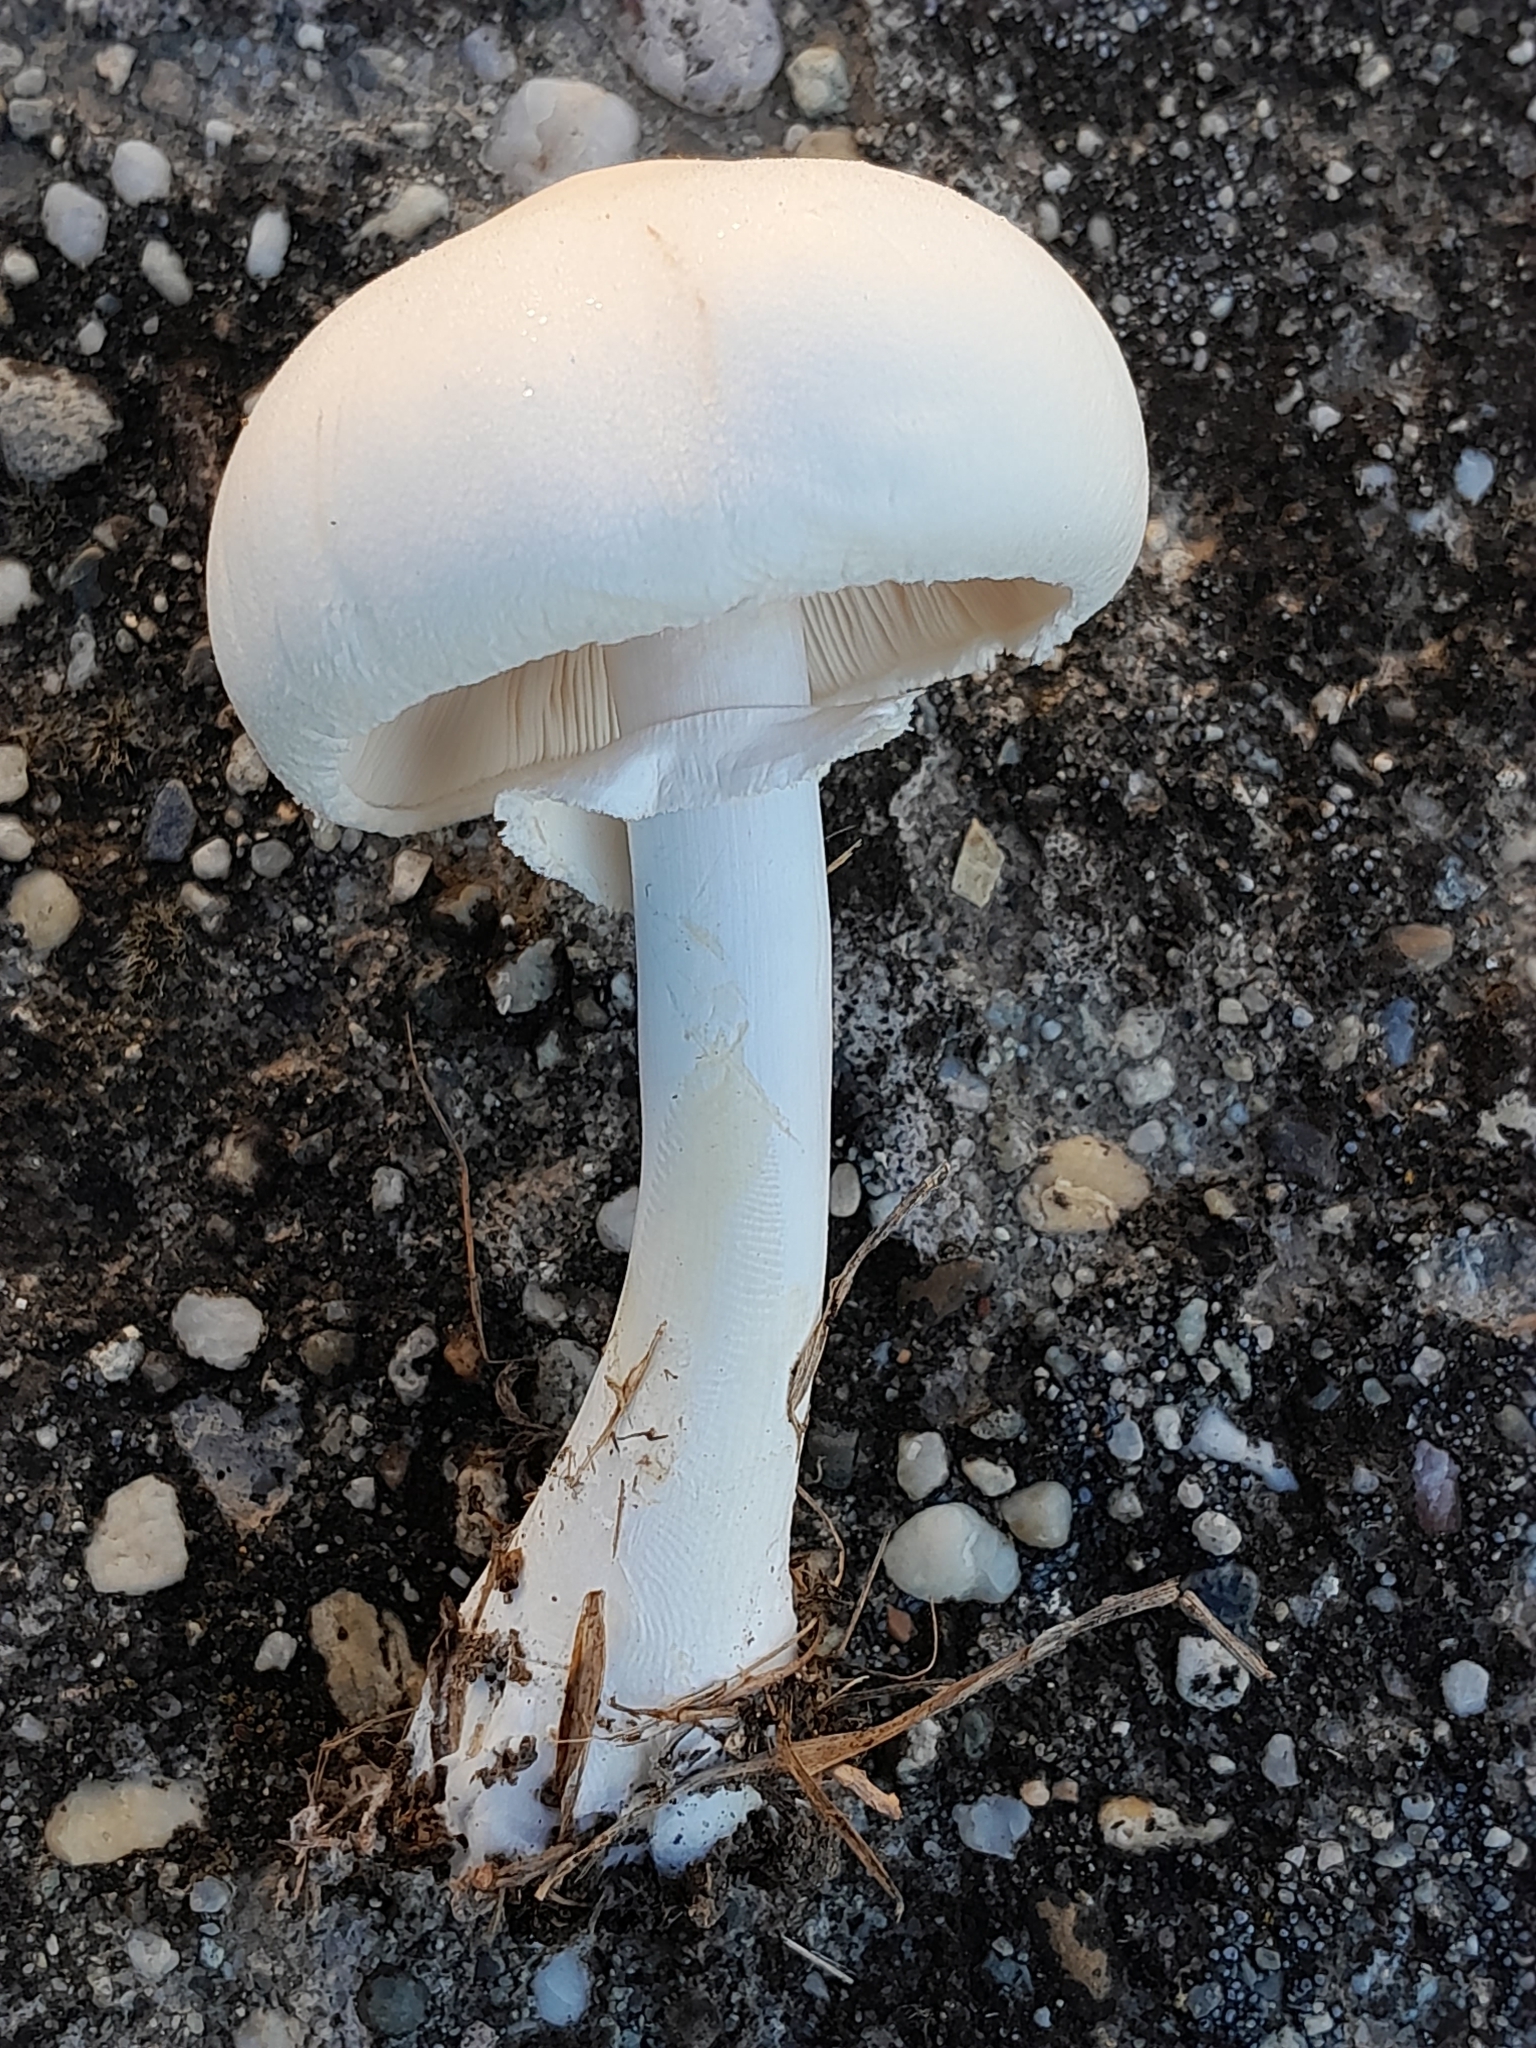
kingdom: Fungi
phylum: Basidiomycota
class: Agaricomycetes
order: Agaricales
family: Agaricaceae
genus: Leucoagaricus
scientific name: Leucoagaricus leucothites
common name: White dapperling
